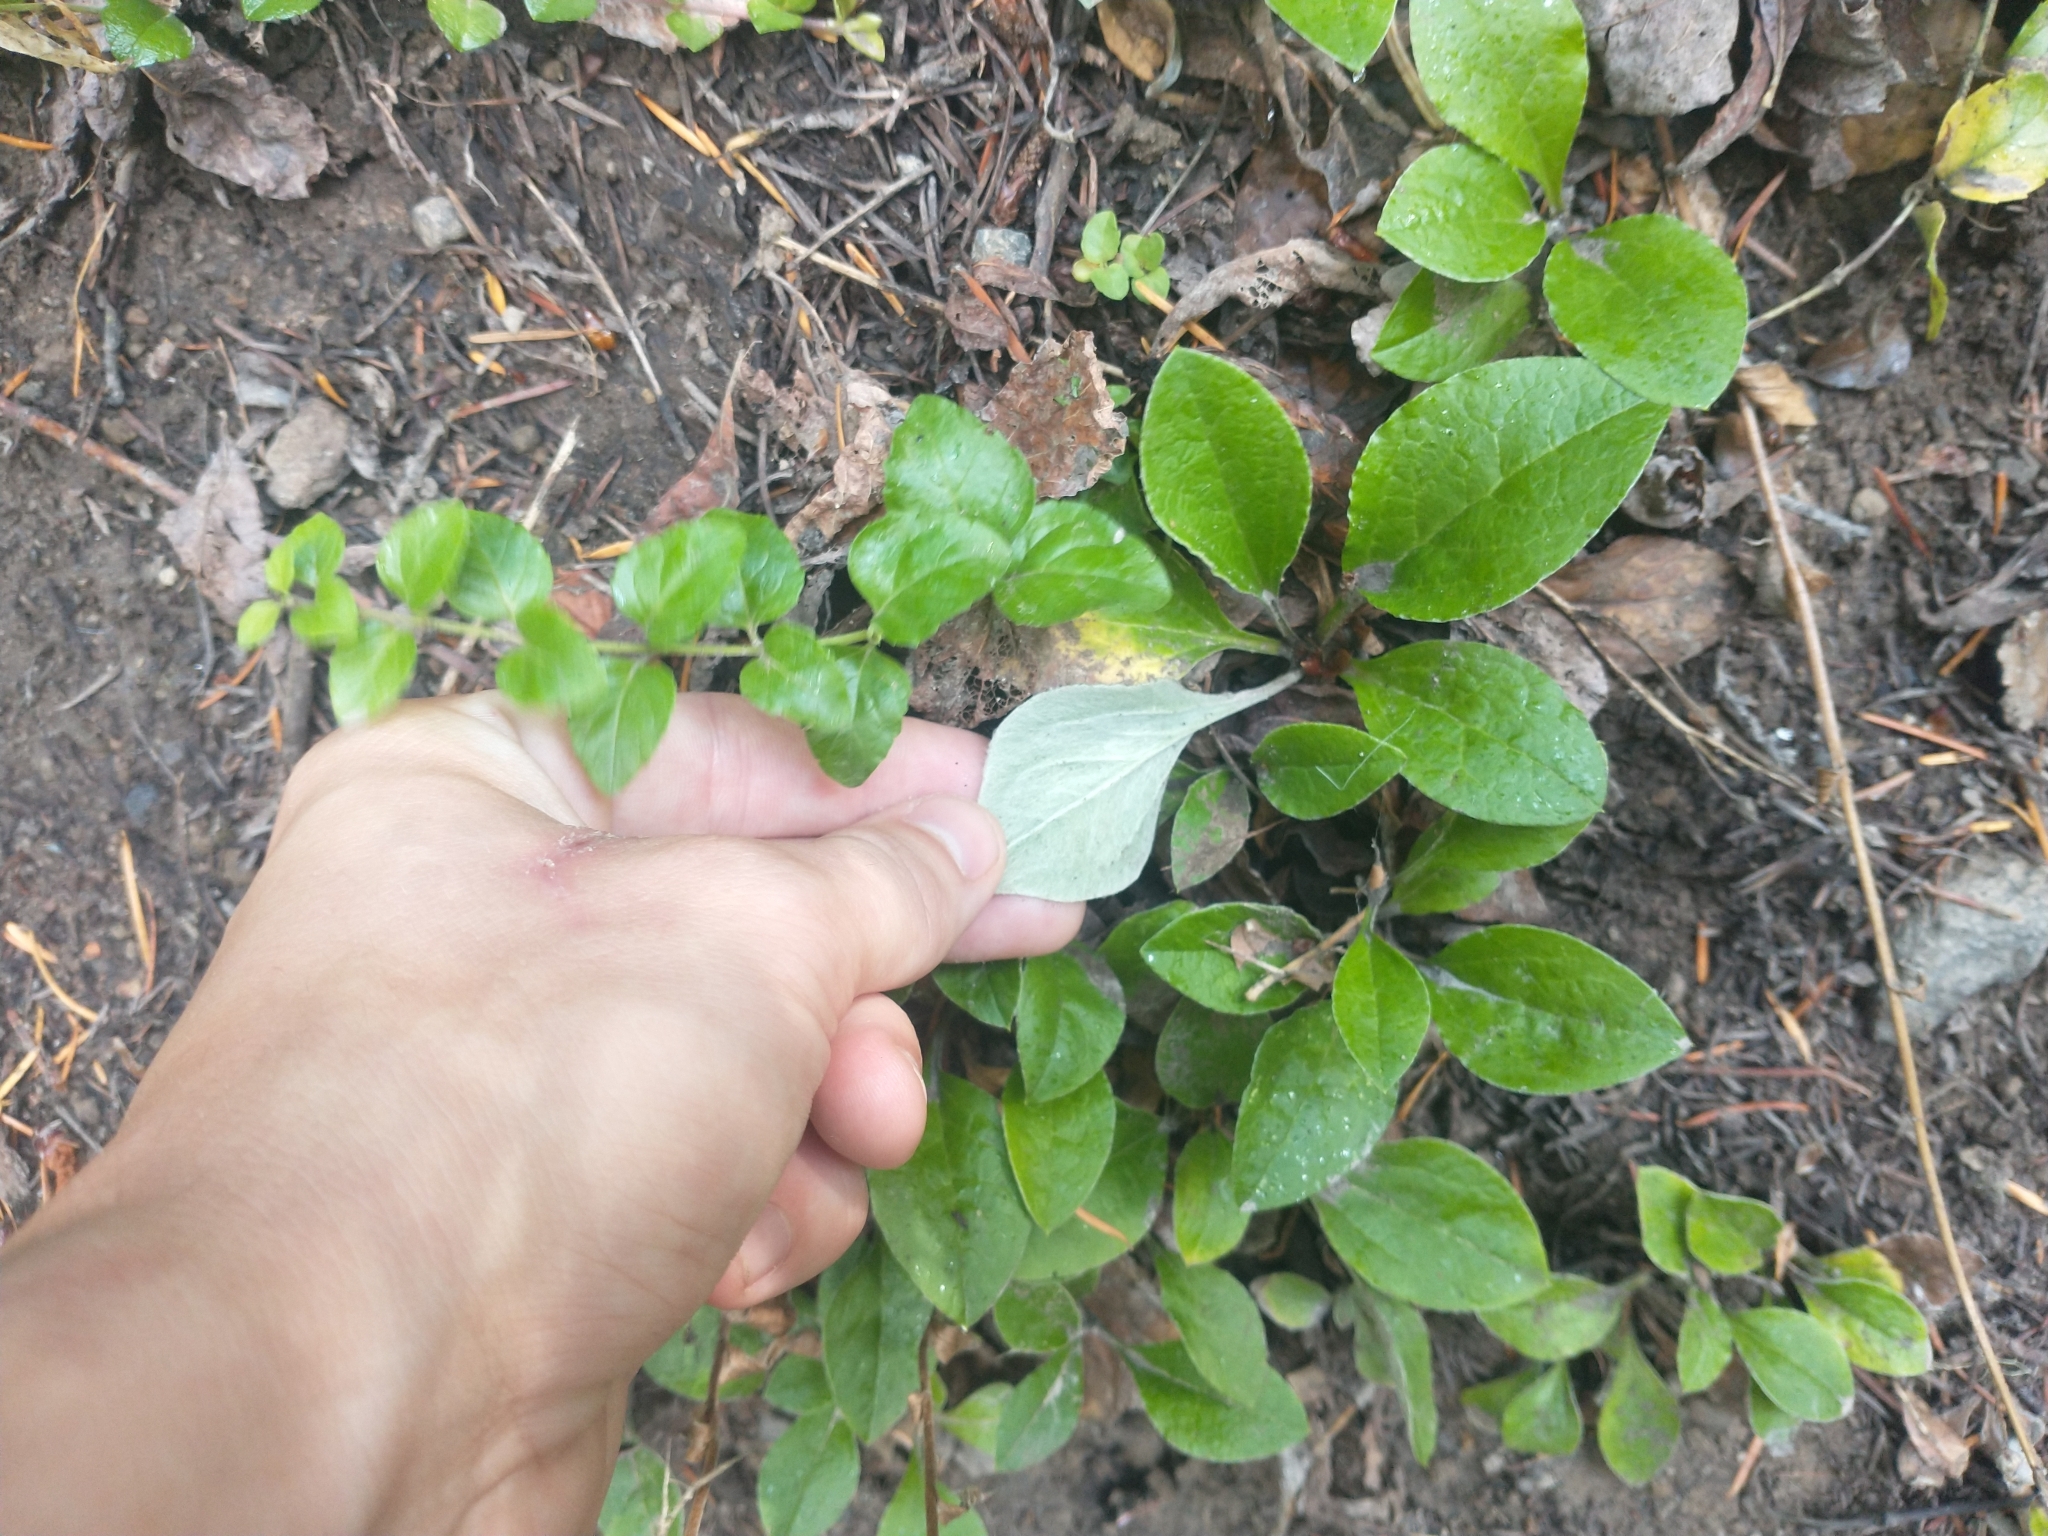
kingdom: Plantae
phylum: Tracheophyta
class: Magnoliopsida
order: Asterales
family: Asteraceae
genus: Antennaria
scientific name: Antennaria racemosa
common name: Racemose pussytoes
